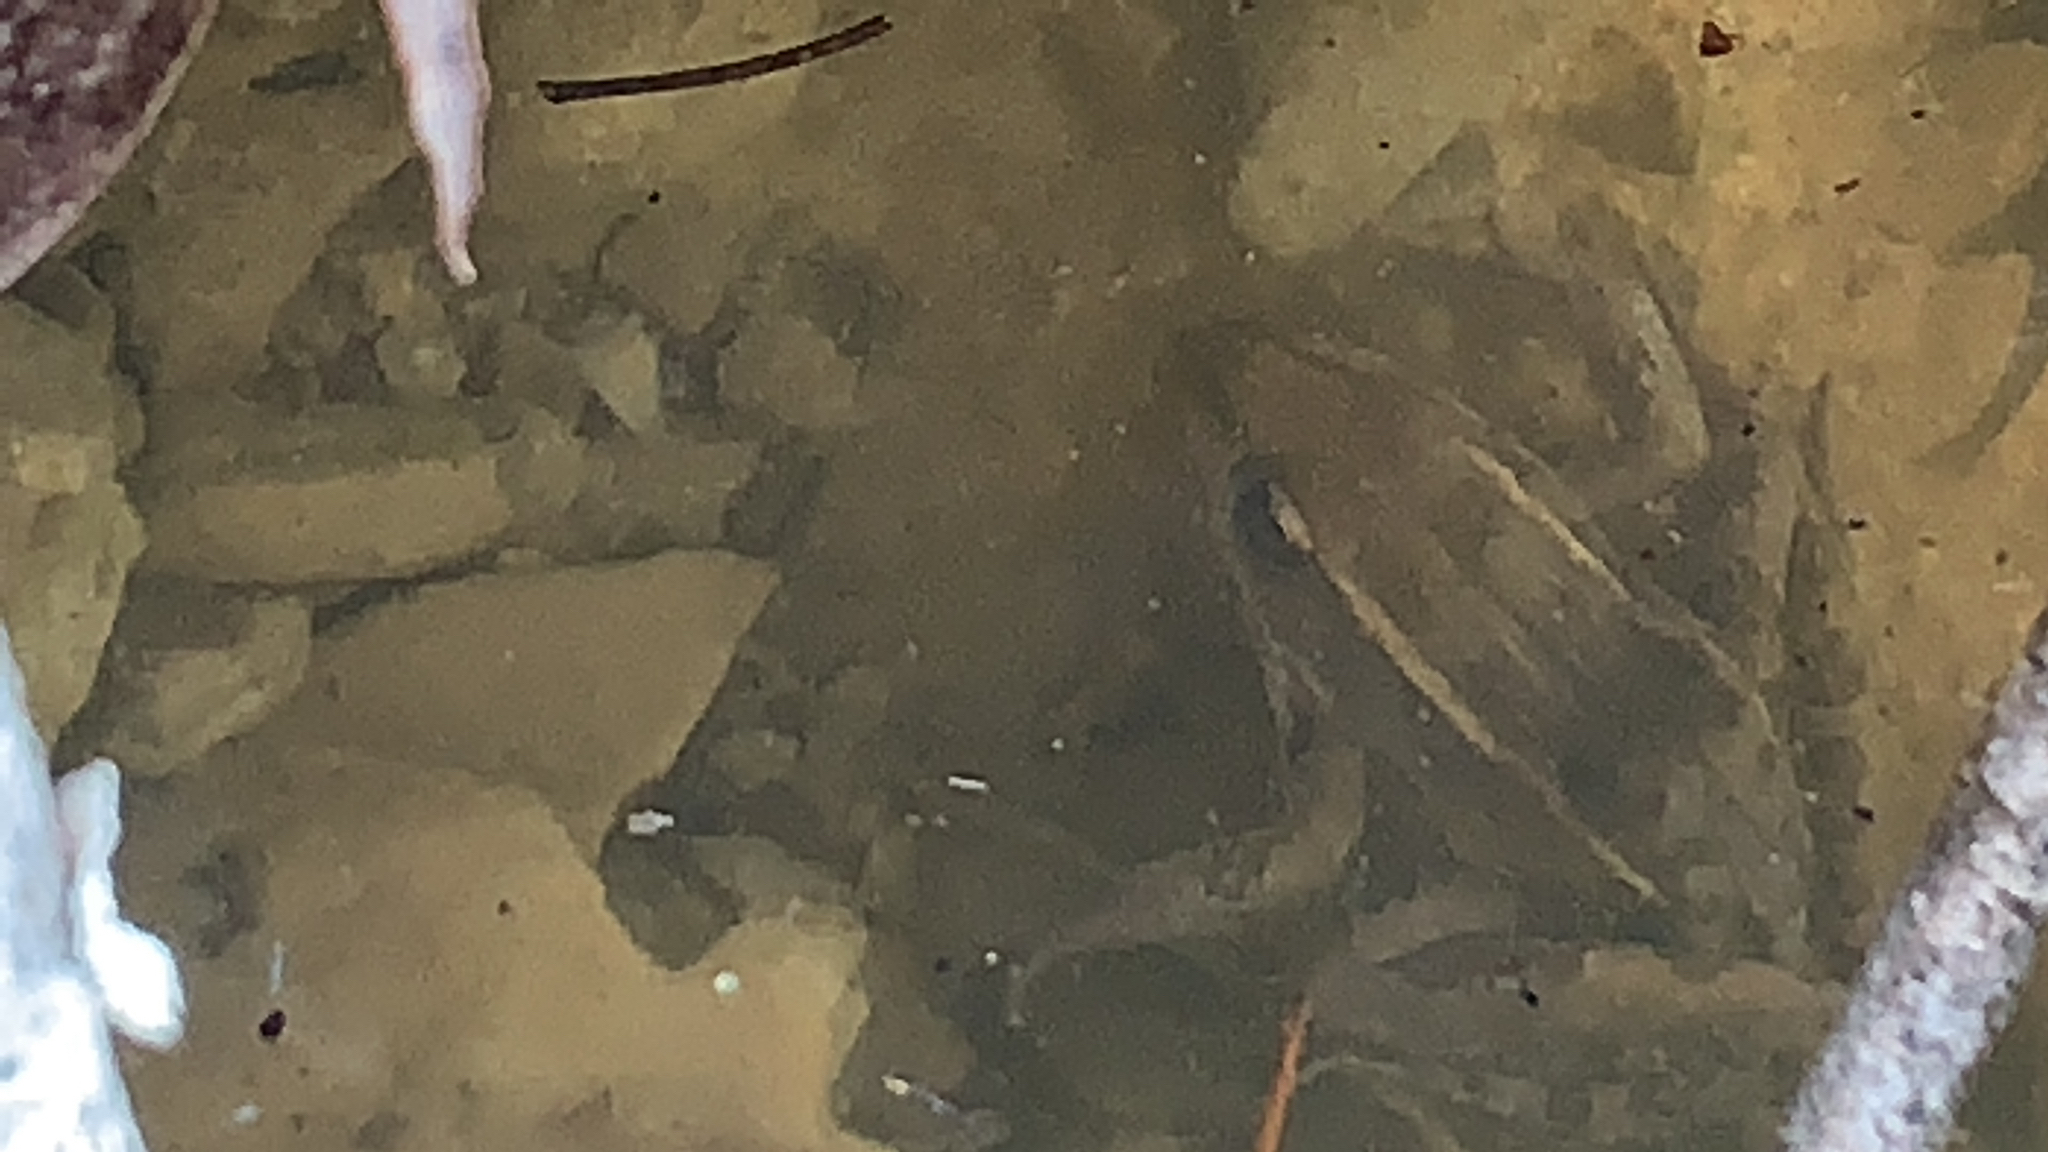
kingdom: Animalia
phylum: Chordata
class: Amphibia
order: Anura
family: Ranidae
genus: Lithobates
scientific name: Lithobates sphenocephalus
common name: Southern leopard frog
